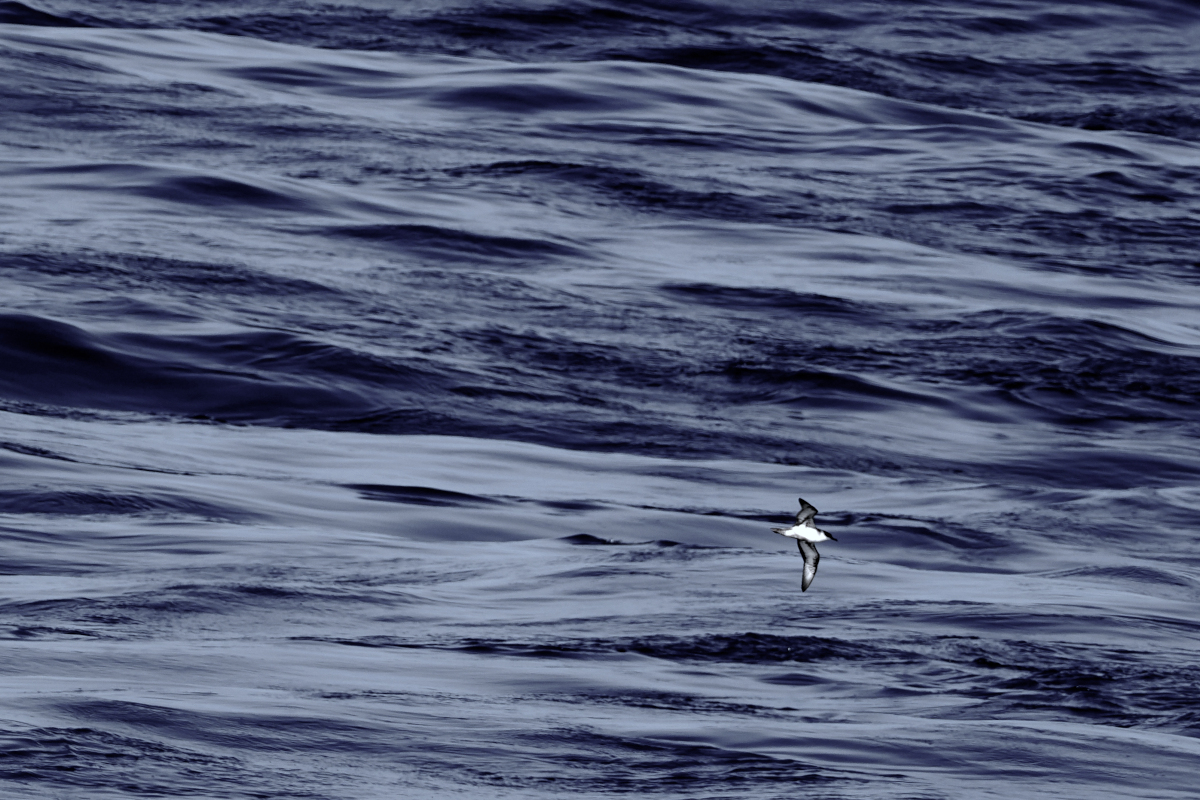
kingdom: Animalia
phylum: Chordata
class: Aves
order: Procellariiformes
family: Procellariidae
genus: Puffinus
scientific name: Puffinus gravis
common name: Great shearwater
